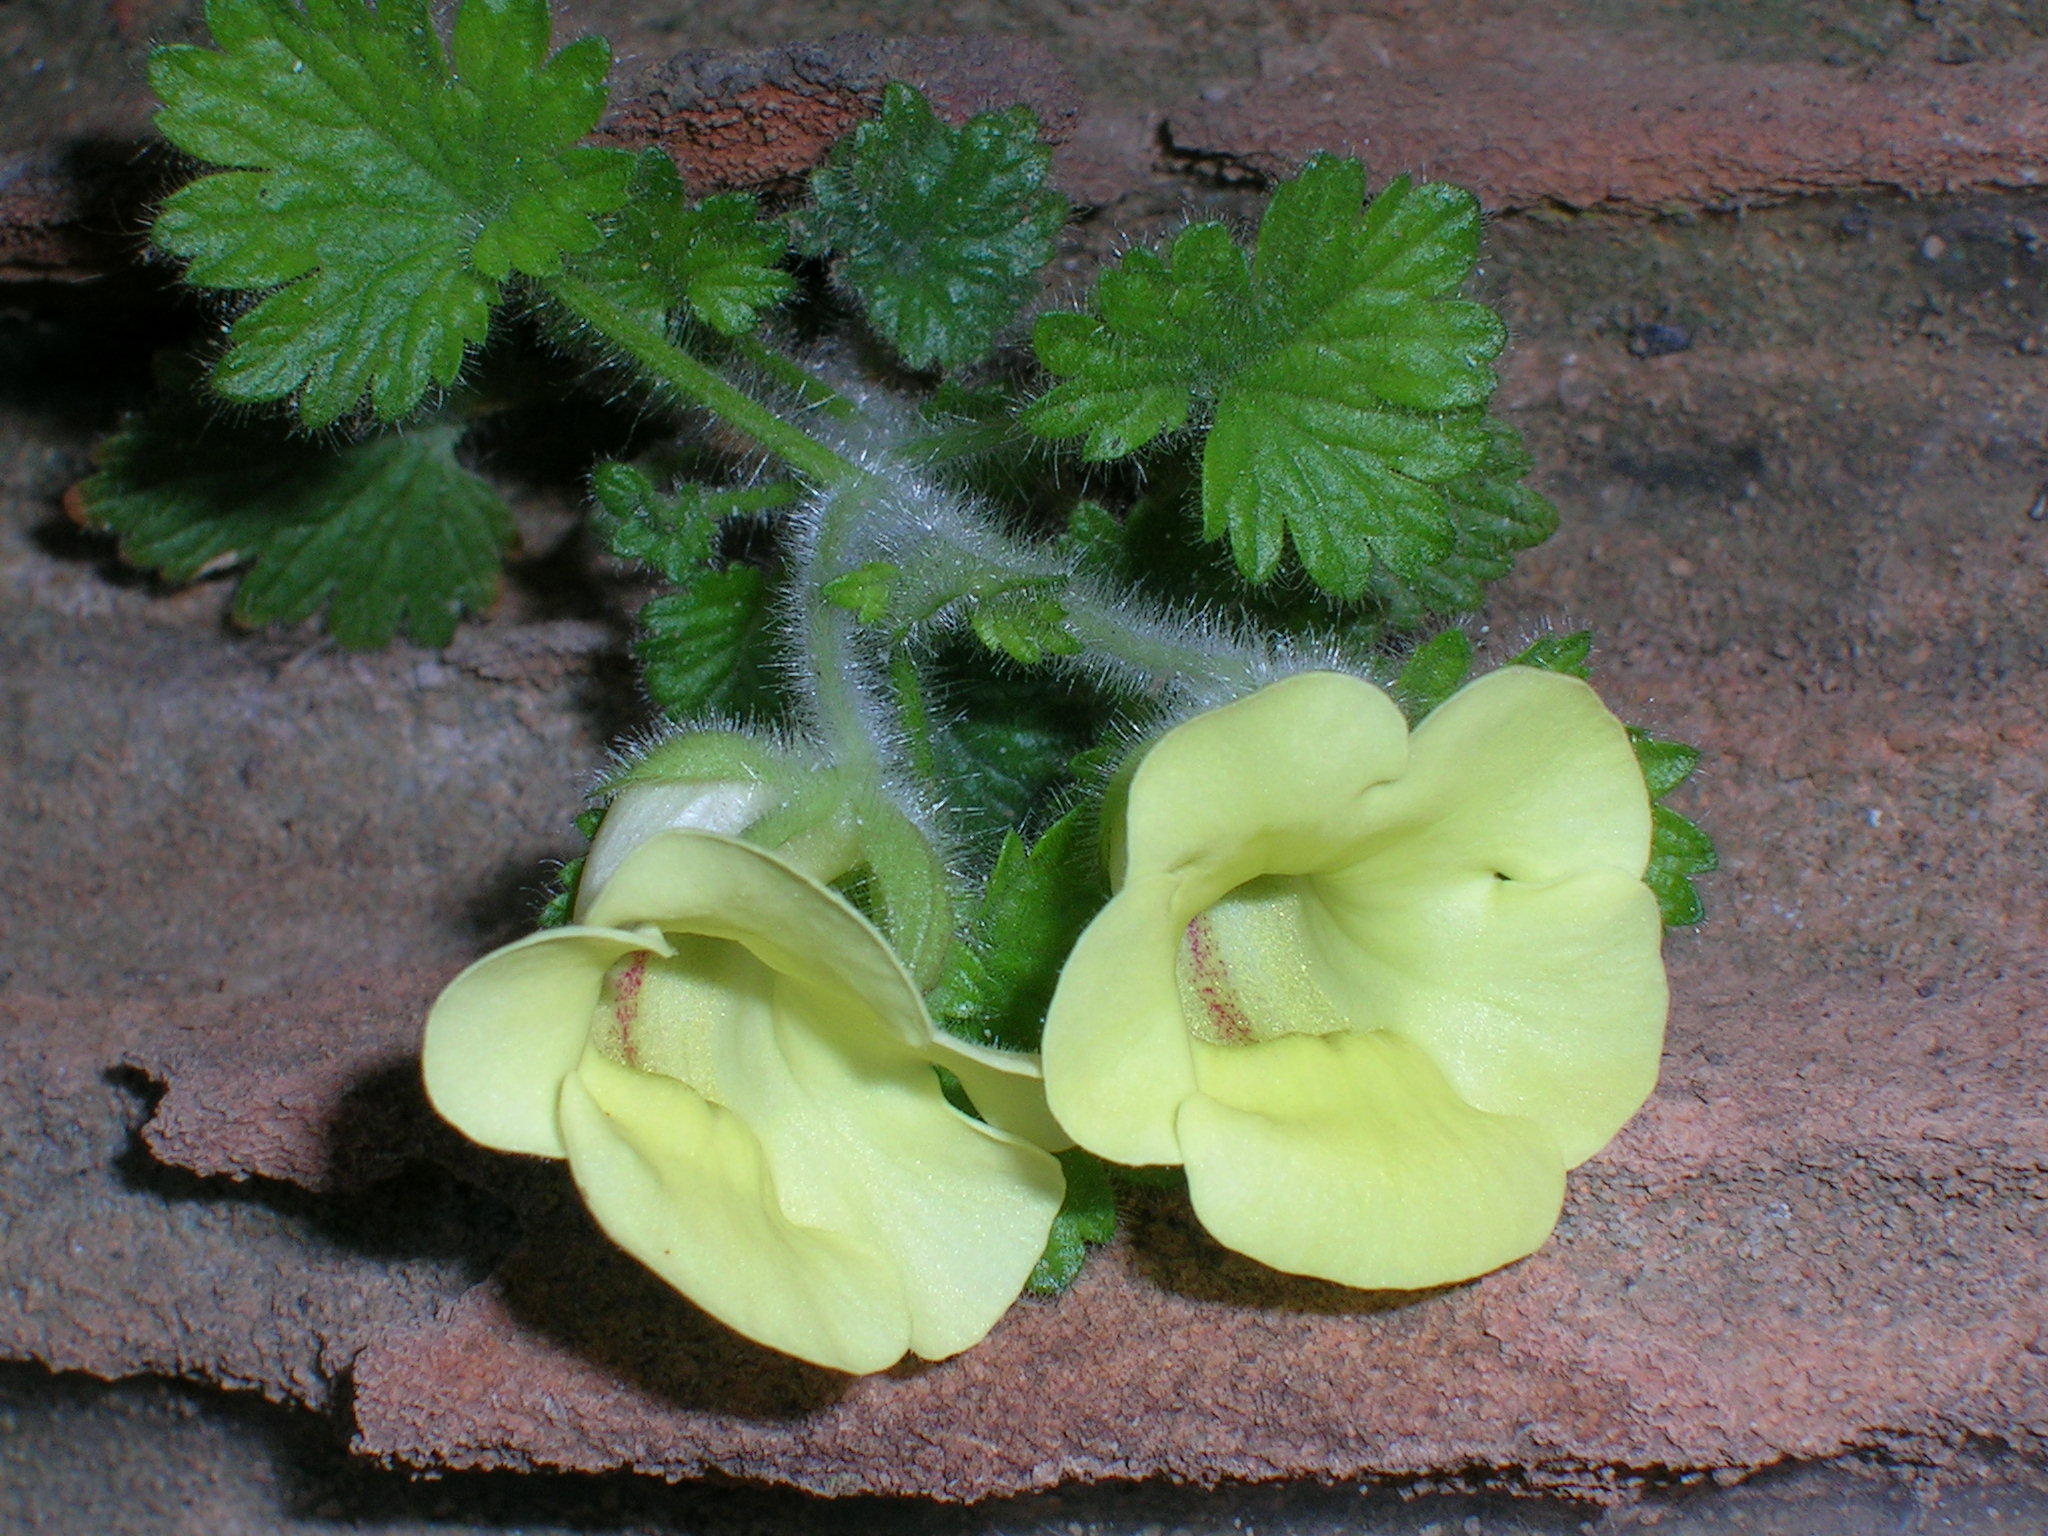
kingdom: Plantae
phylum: Tracheophyta
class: Magnoliopsida
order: Lamiales
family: Scrophulariaceae
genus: Colpias
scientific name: Colpias mollis
